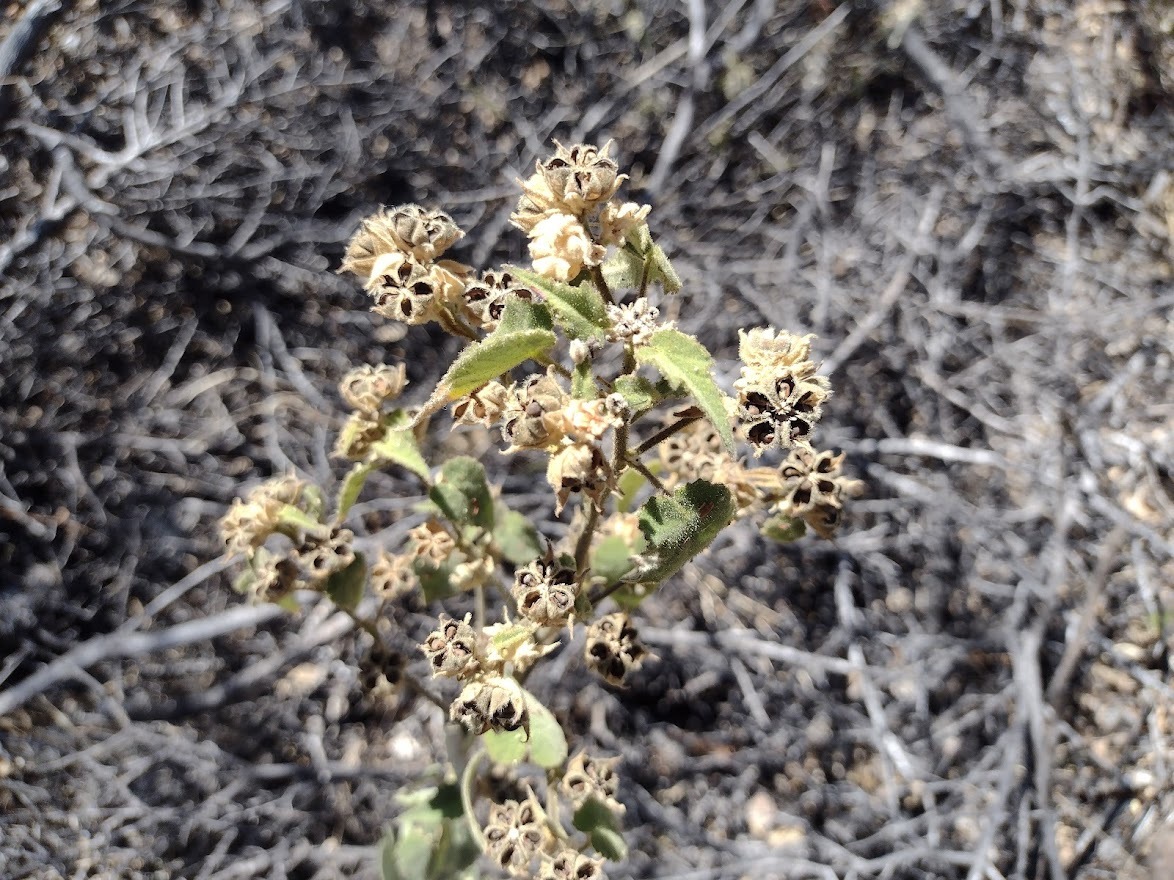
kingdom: Plantae
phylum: Tracheophyta
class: Magnoliopsida
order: Malvales
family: Malvaceae
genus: Abutilon
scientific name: Abutilon viscosum
